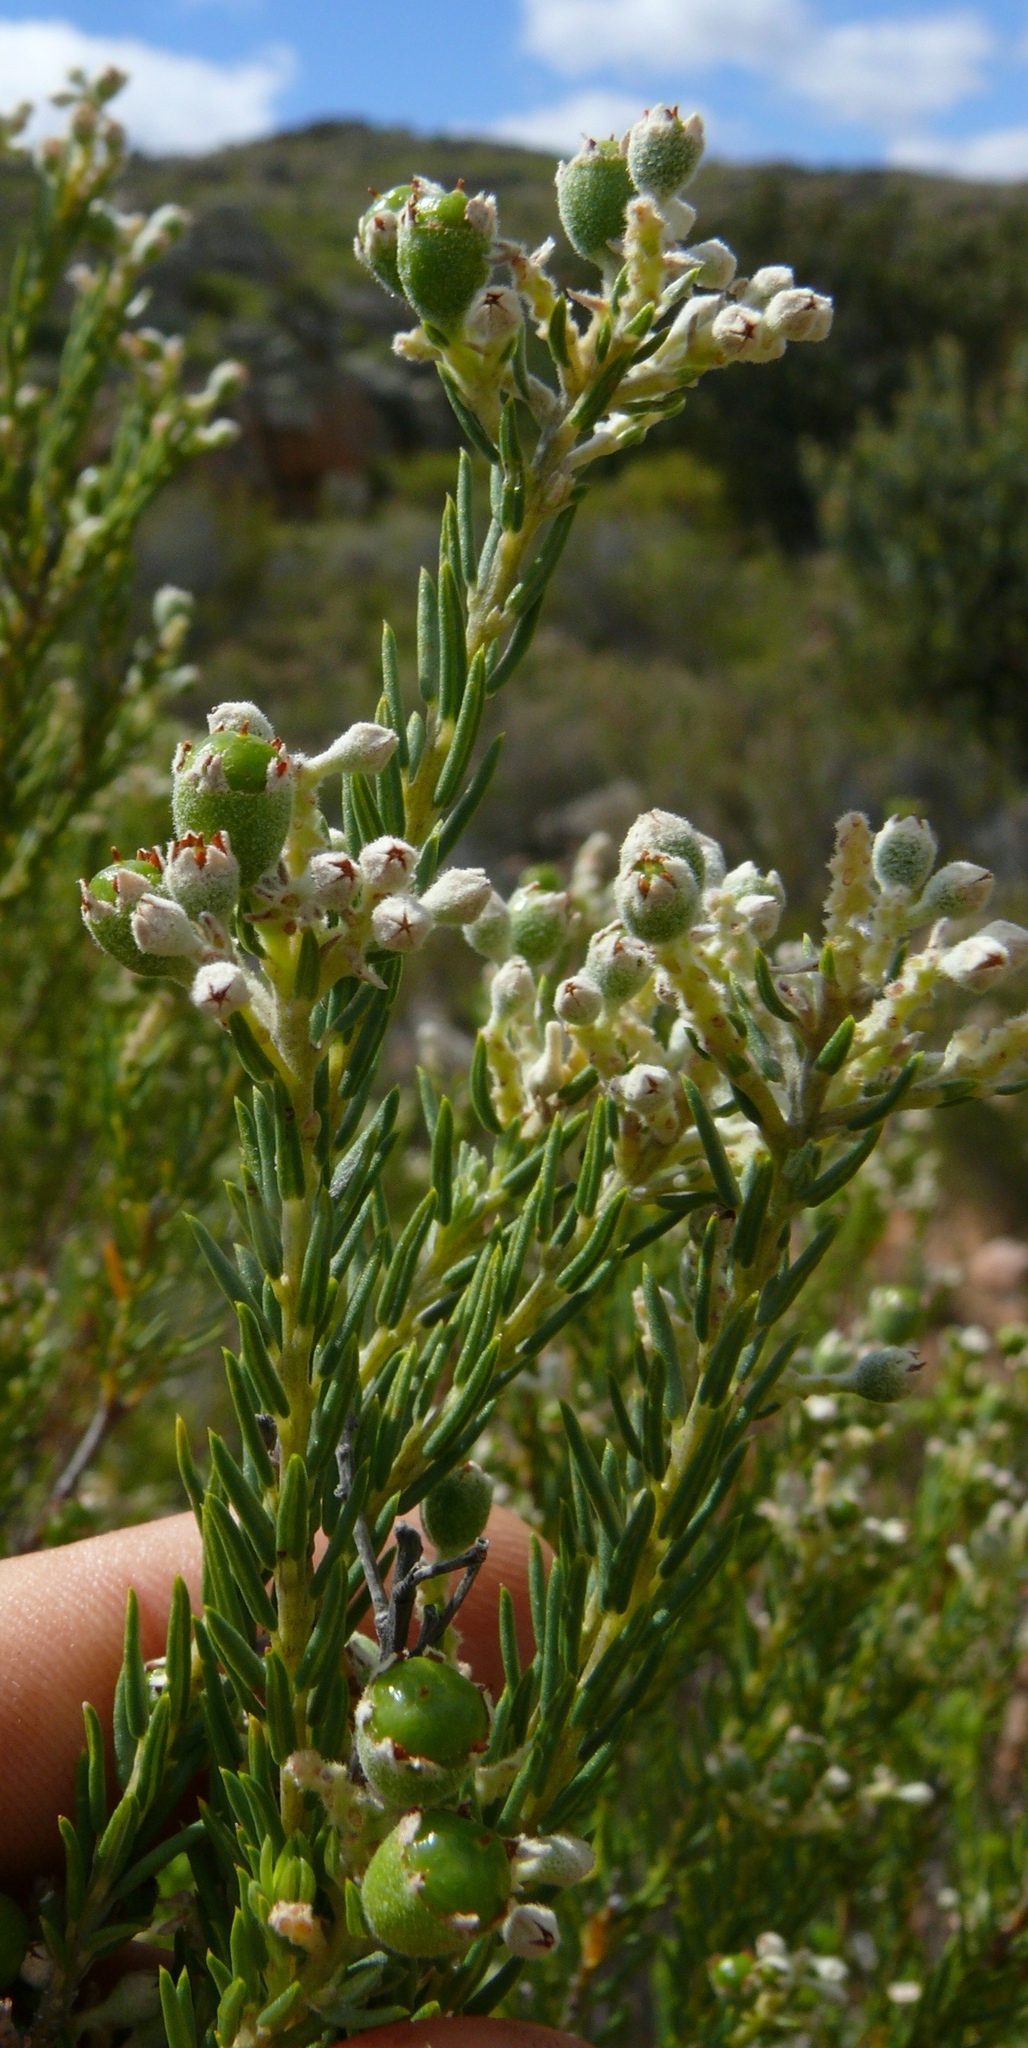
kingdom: Plantae
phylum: Tracheophyta
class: Magnoliopsida
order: Rosales
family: Rhamnaceae
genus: Phylica
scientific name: Phylica rigidifolia
